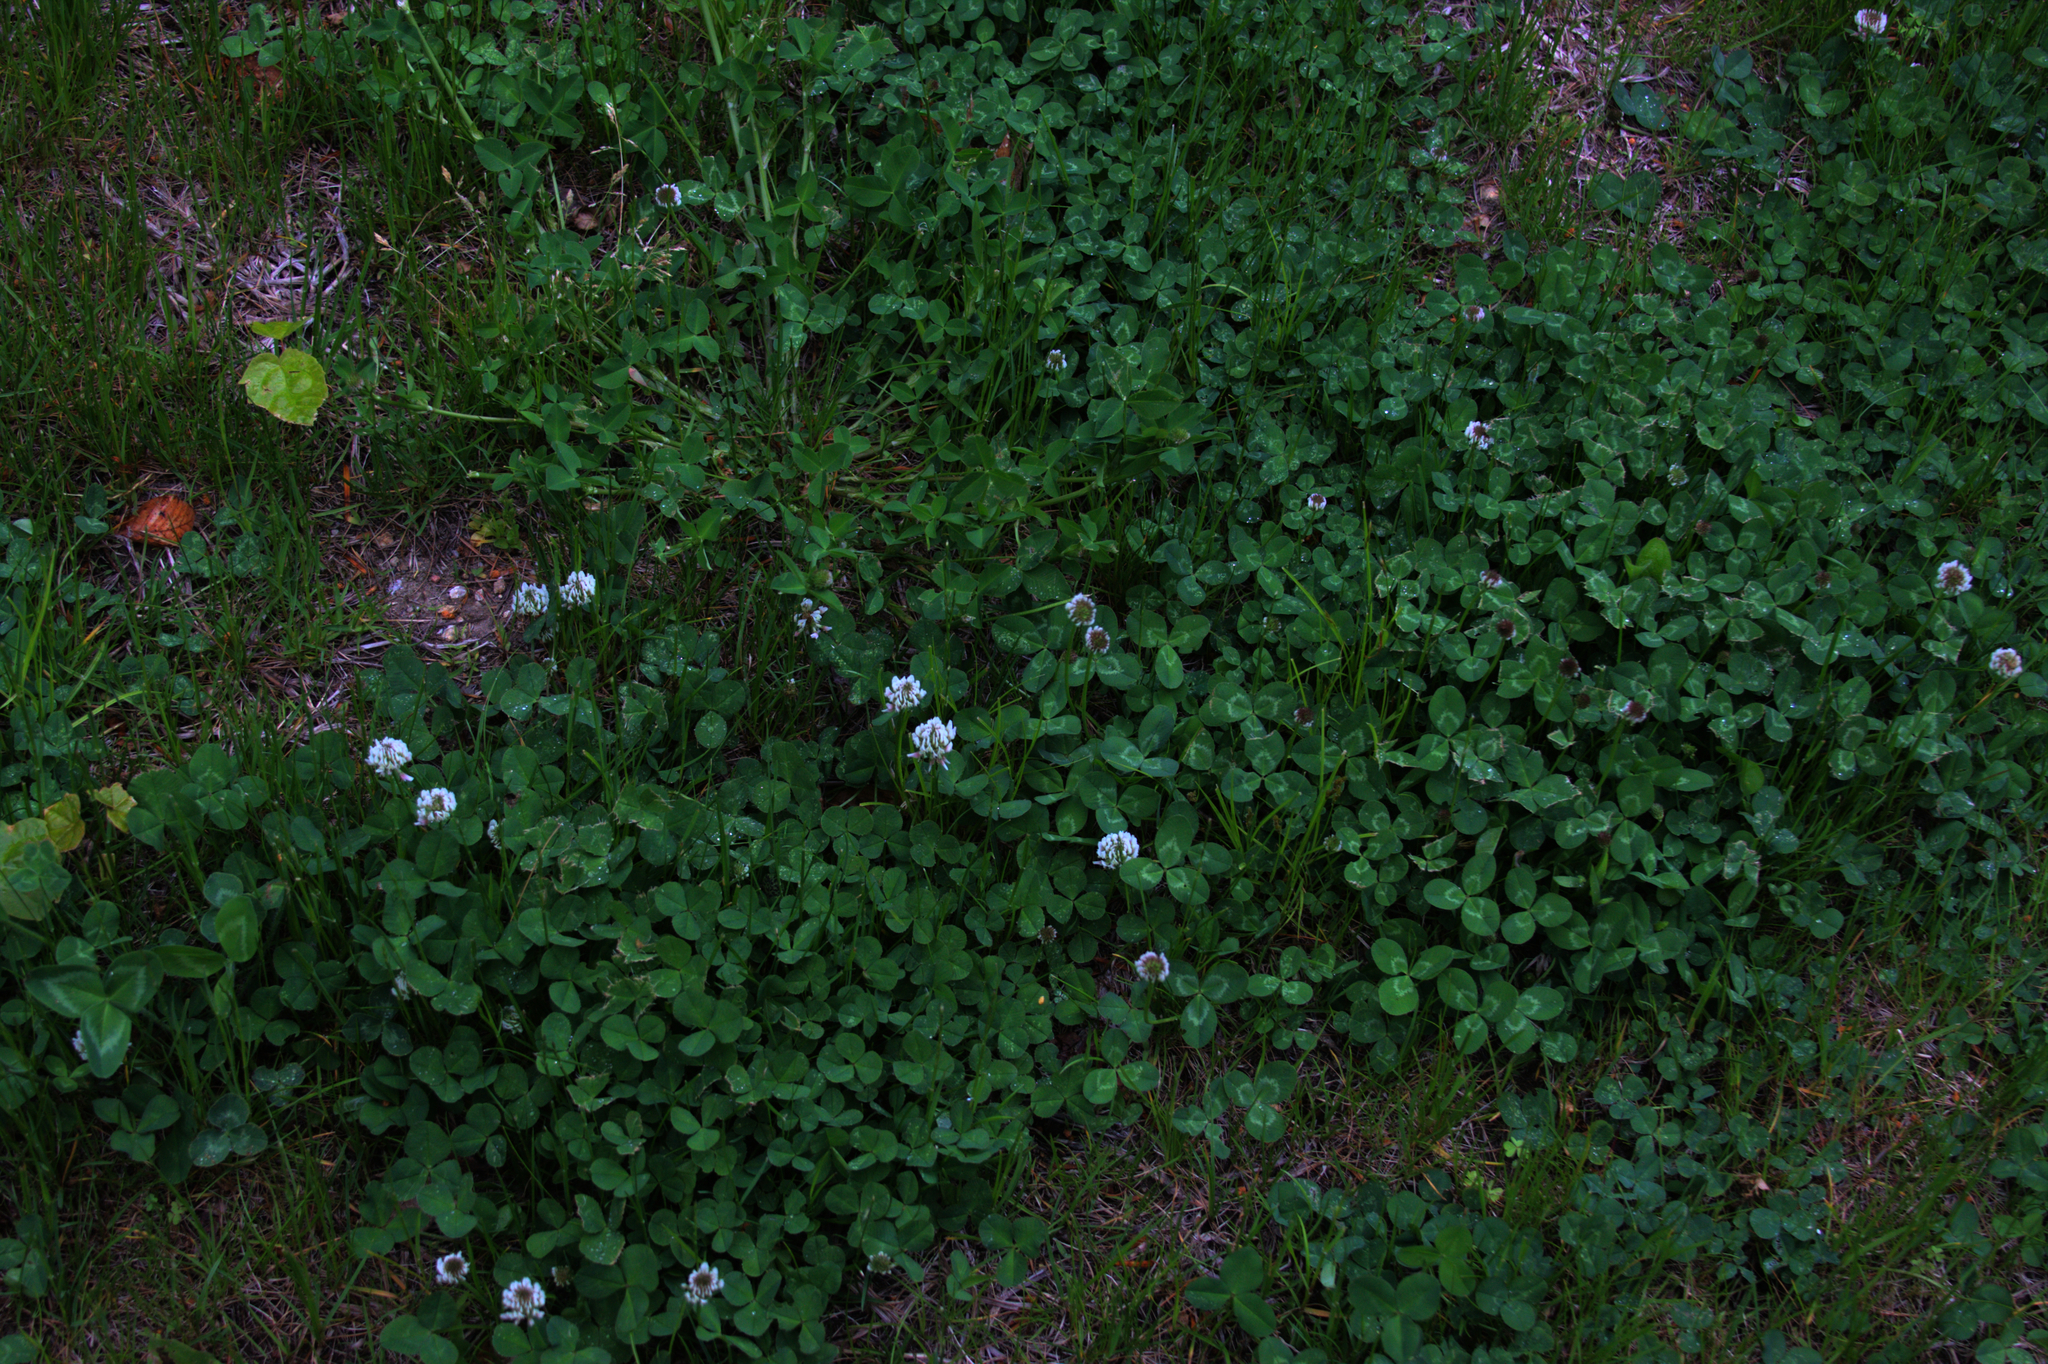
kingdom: Plantae
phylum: Tracheophyta
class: Magnoliopsida
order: Fabales
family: Fabaceae
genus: Trifolium
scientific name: Trifolium repens
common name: White clover
